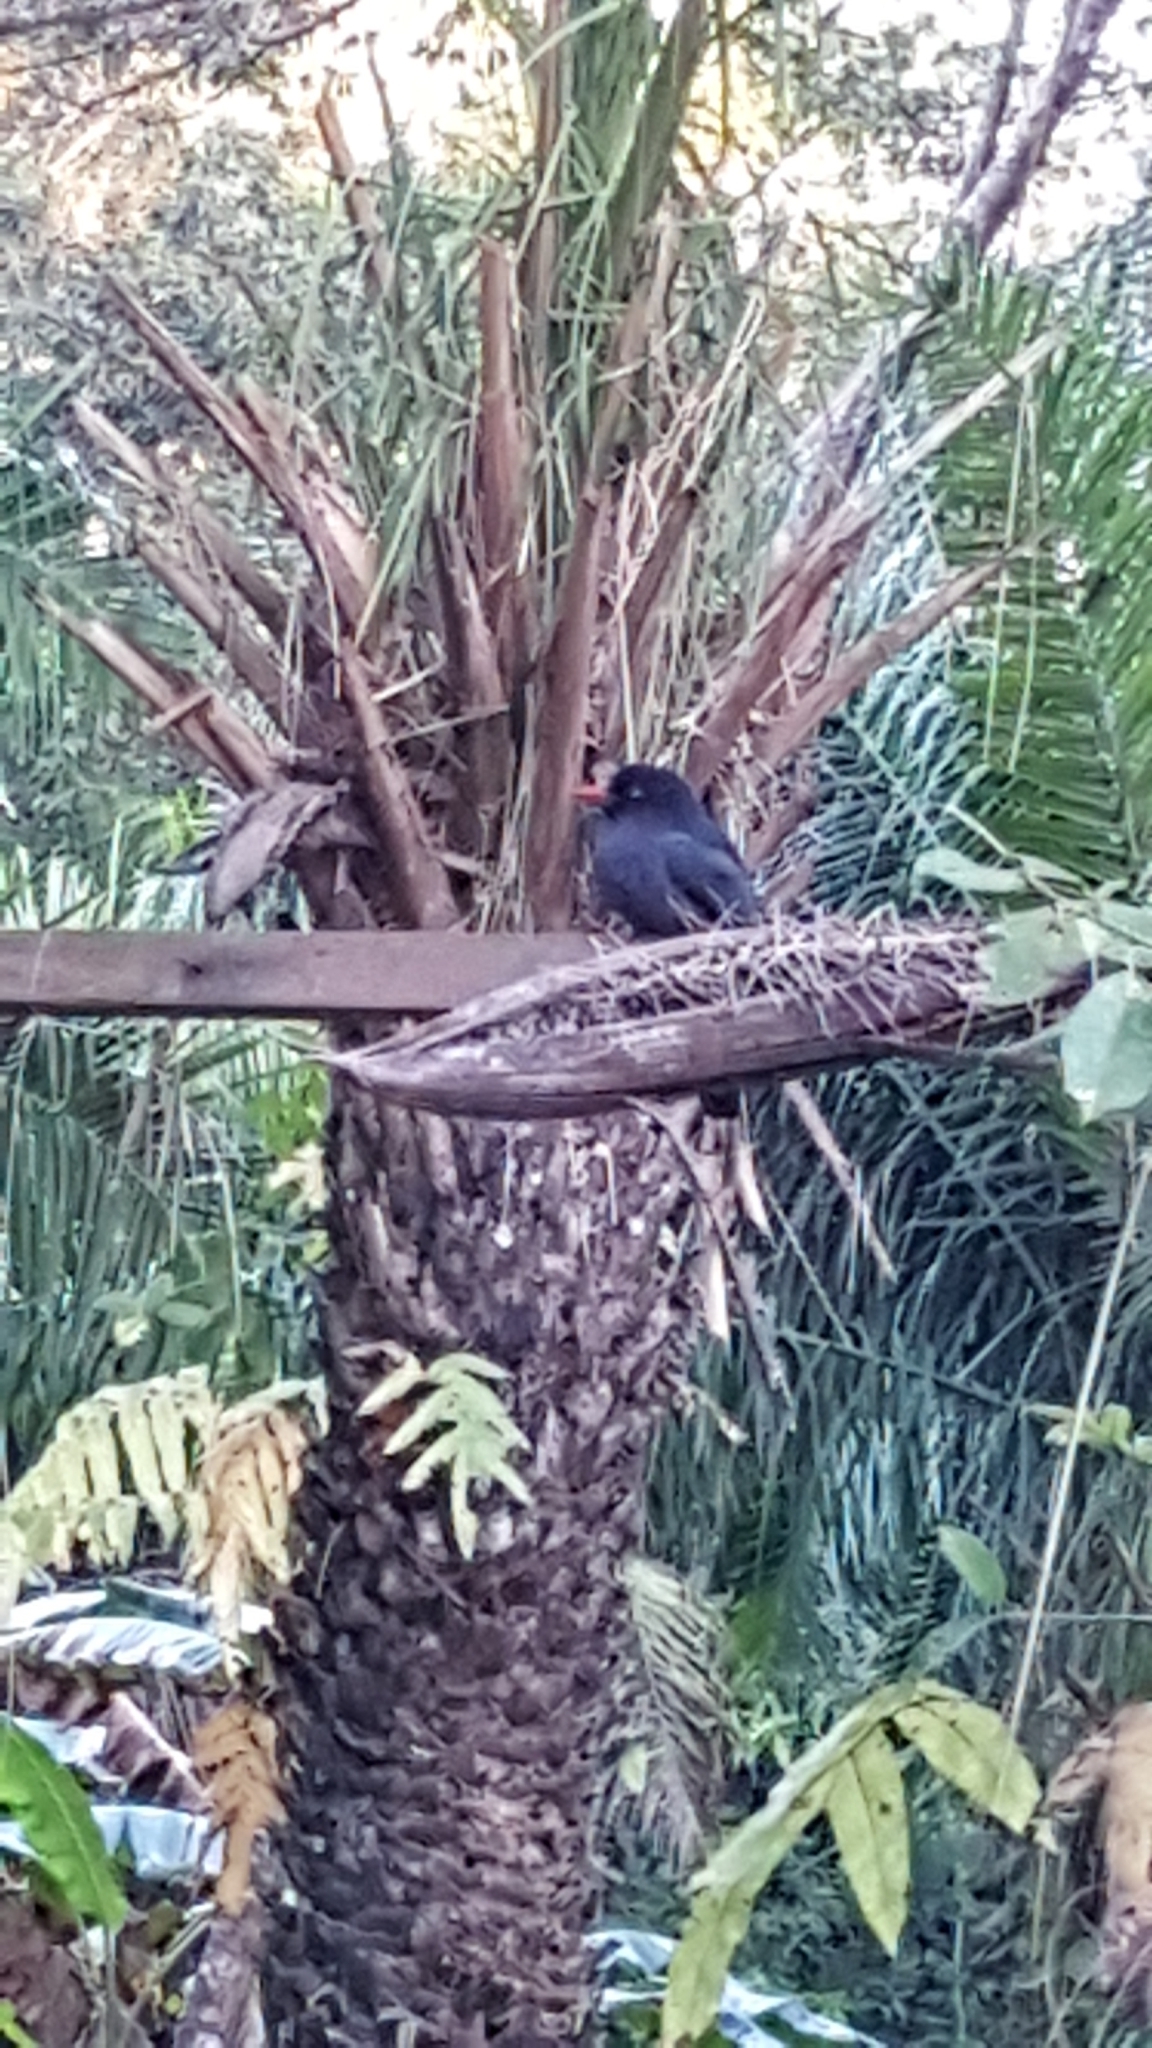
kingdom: Animalia
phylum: Chordata
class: Aves
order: Piciformes
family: Bucconidae
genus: Monasa
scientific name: Monasa nigrifrons
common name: Black-fronted nunbird
